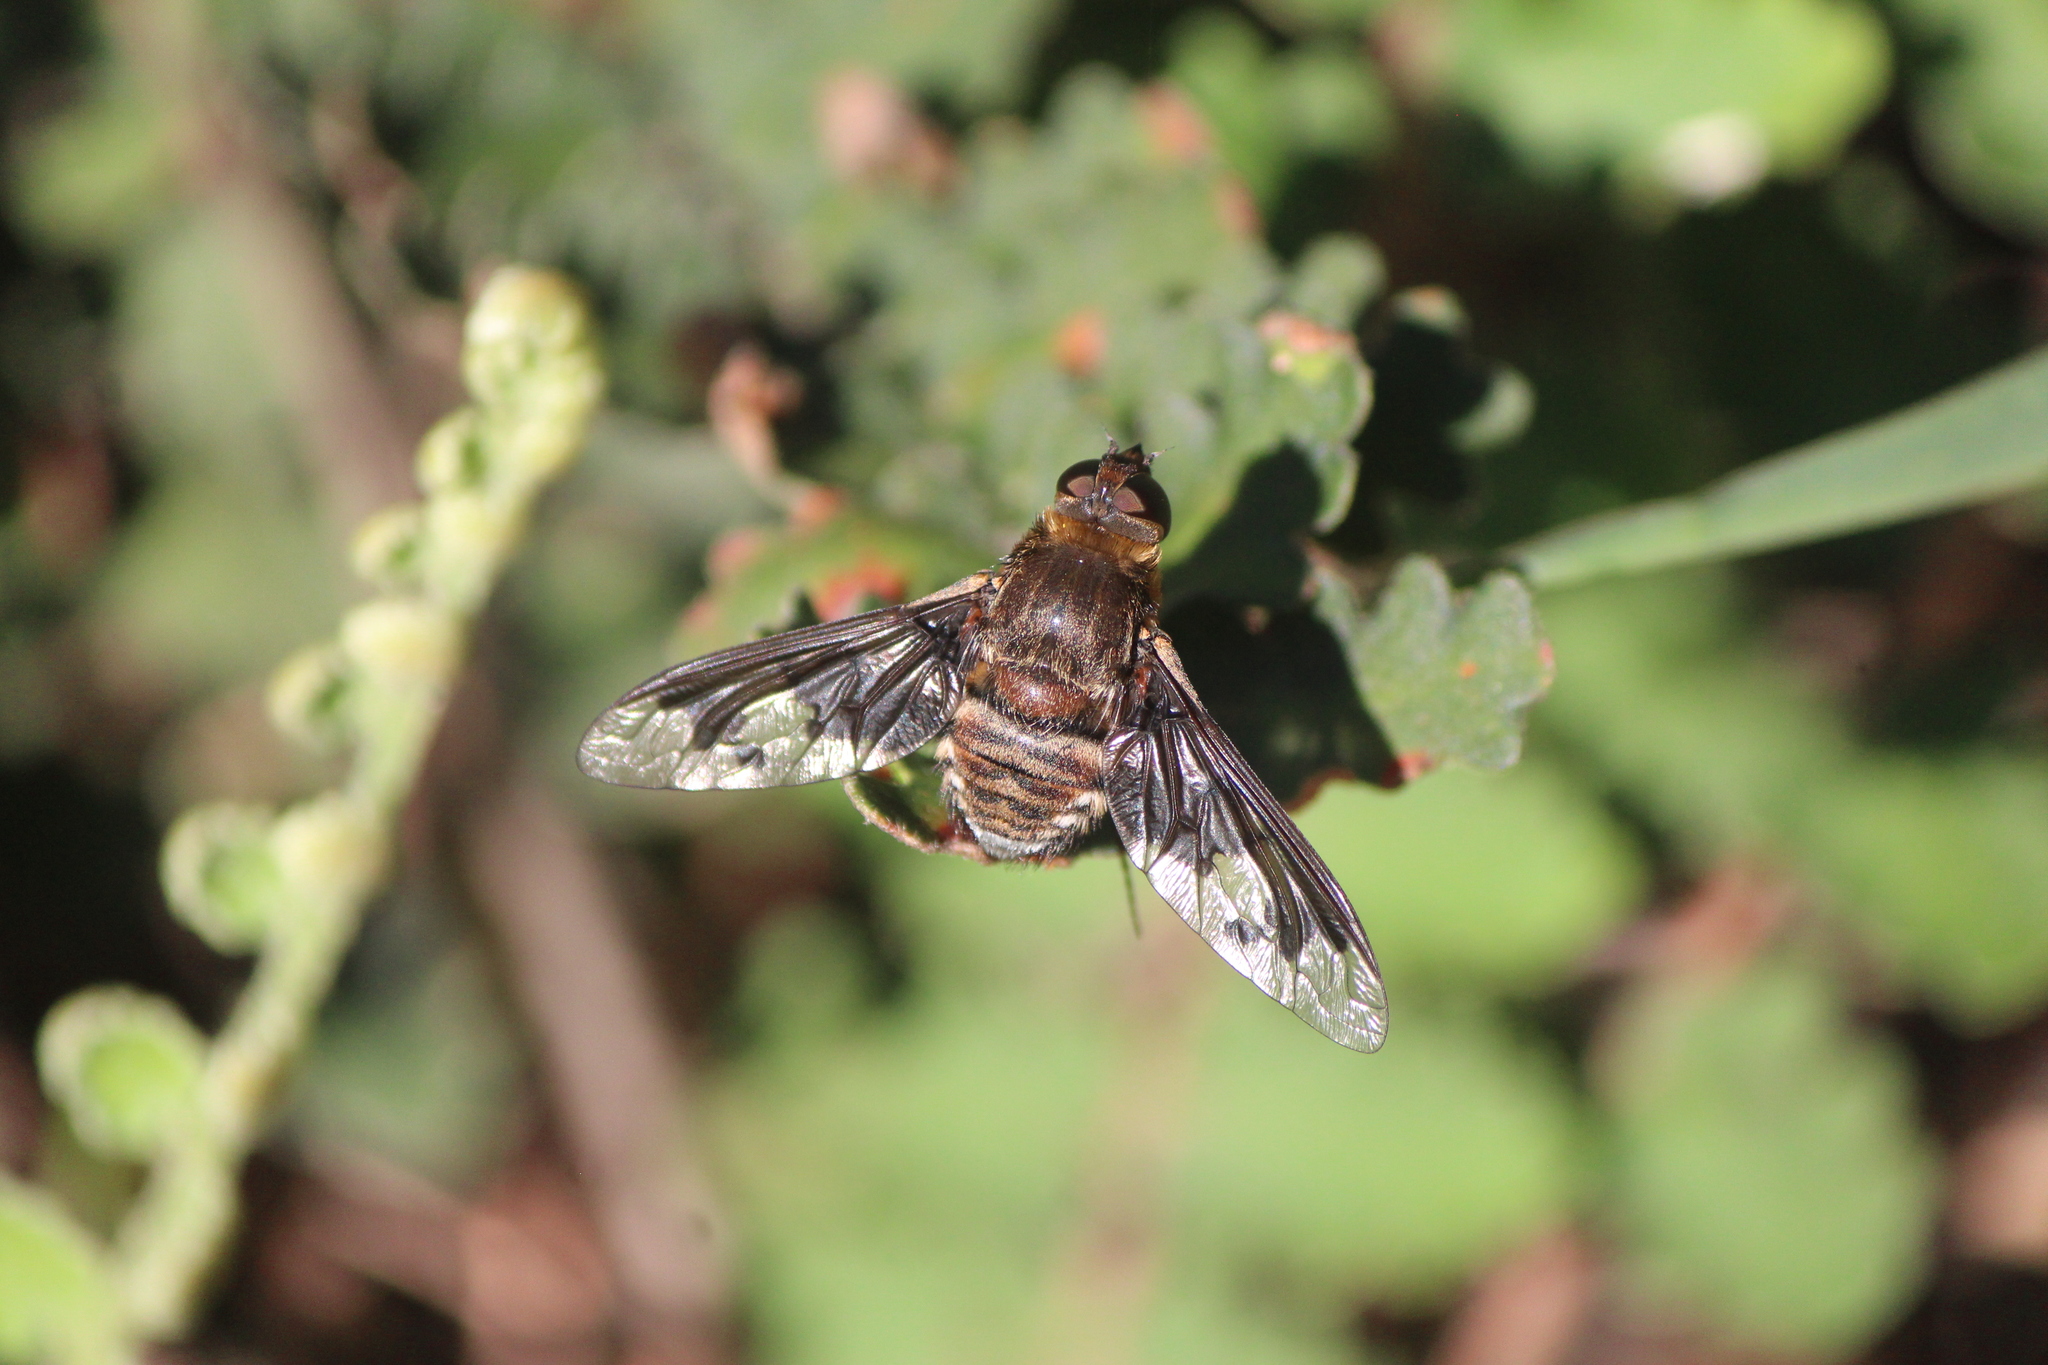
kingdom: Animalia
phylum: Arthropoda
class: Insecta
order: Diptera
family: Bombyliidae
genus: Exoprosopa
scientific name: Exoprosopa pueblensis
